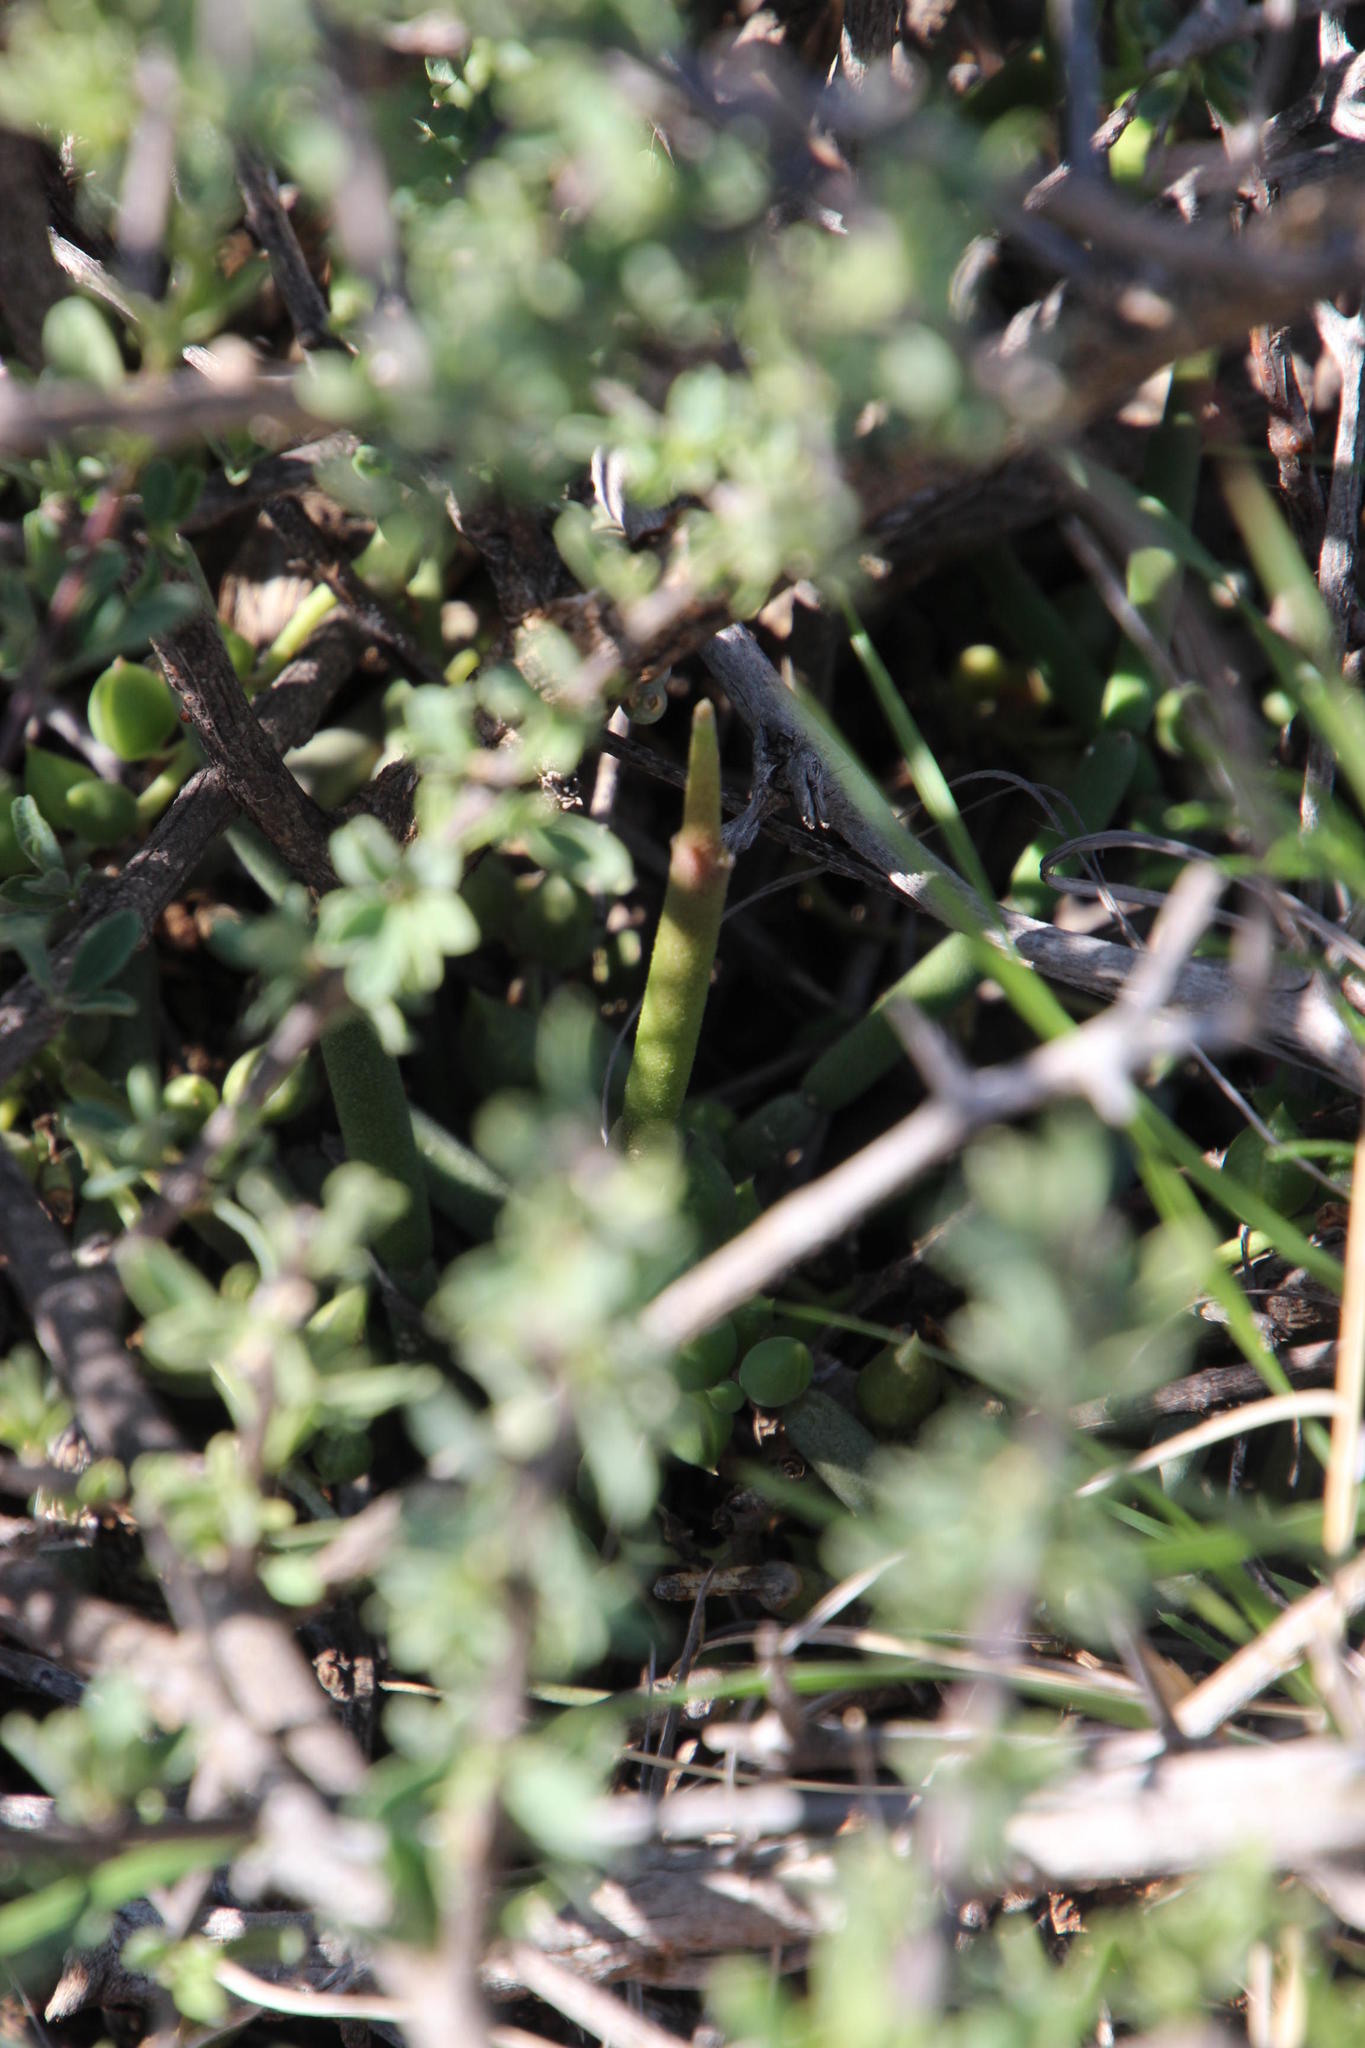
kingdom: Plantae
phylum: Tracheophyta
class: Magnoliopsida
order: Asterales
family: Asteraceae
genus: Curio
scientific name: Curio radicans
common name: Creeping-berry
